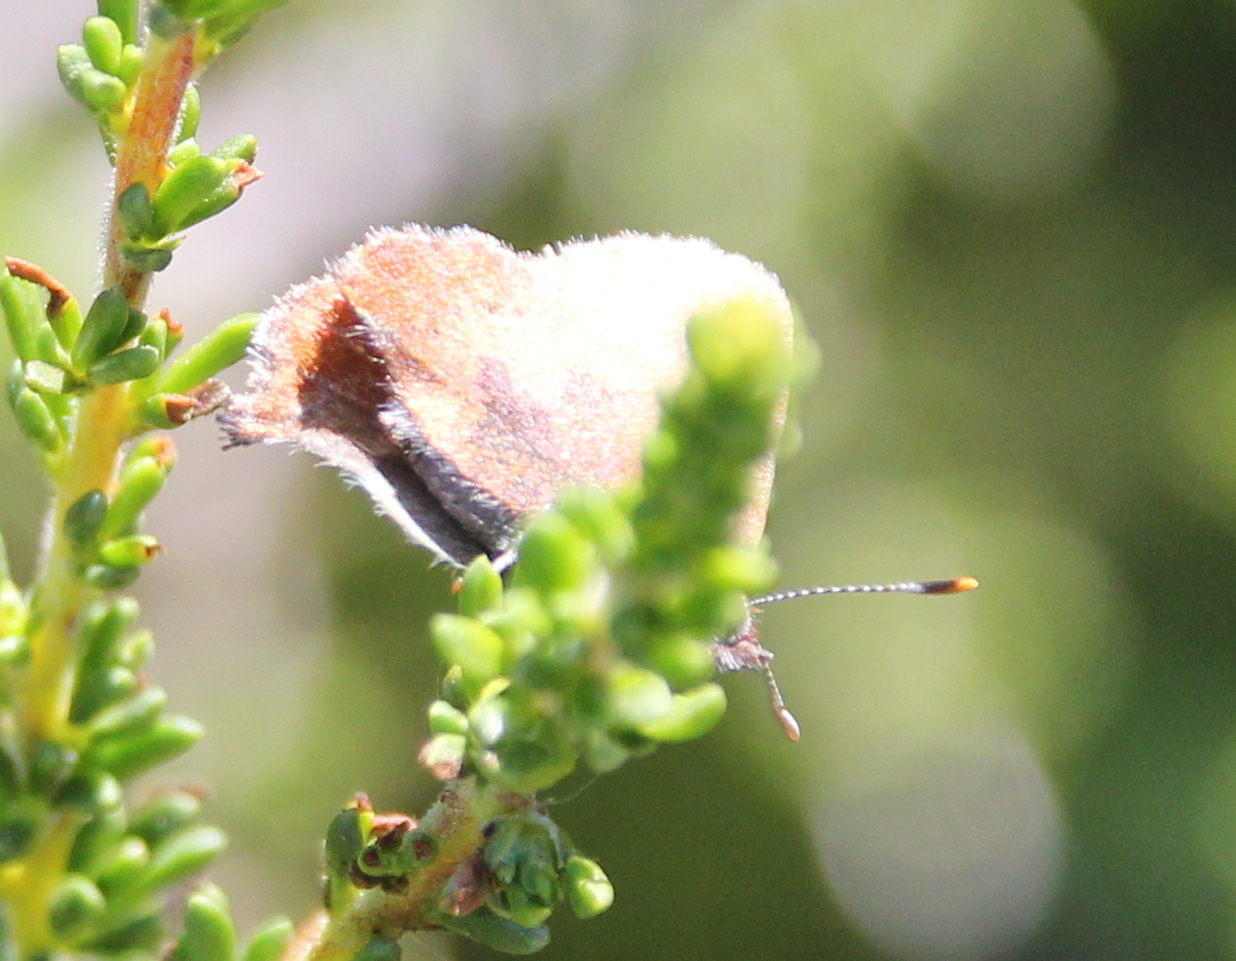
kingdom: Animalia
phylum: Arthropoda
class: Insecta
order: Lepidoptera
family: Lycaenidae
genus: Incisalia
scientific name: Incisalia irioides
